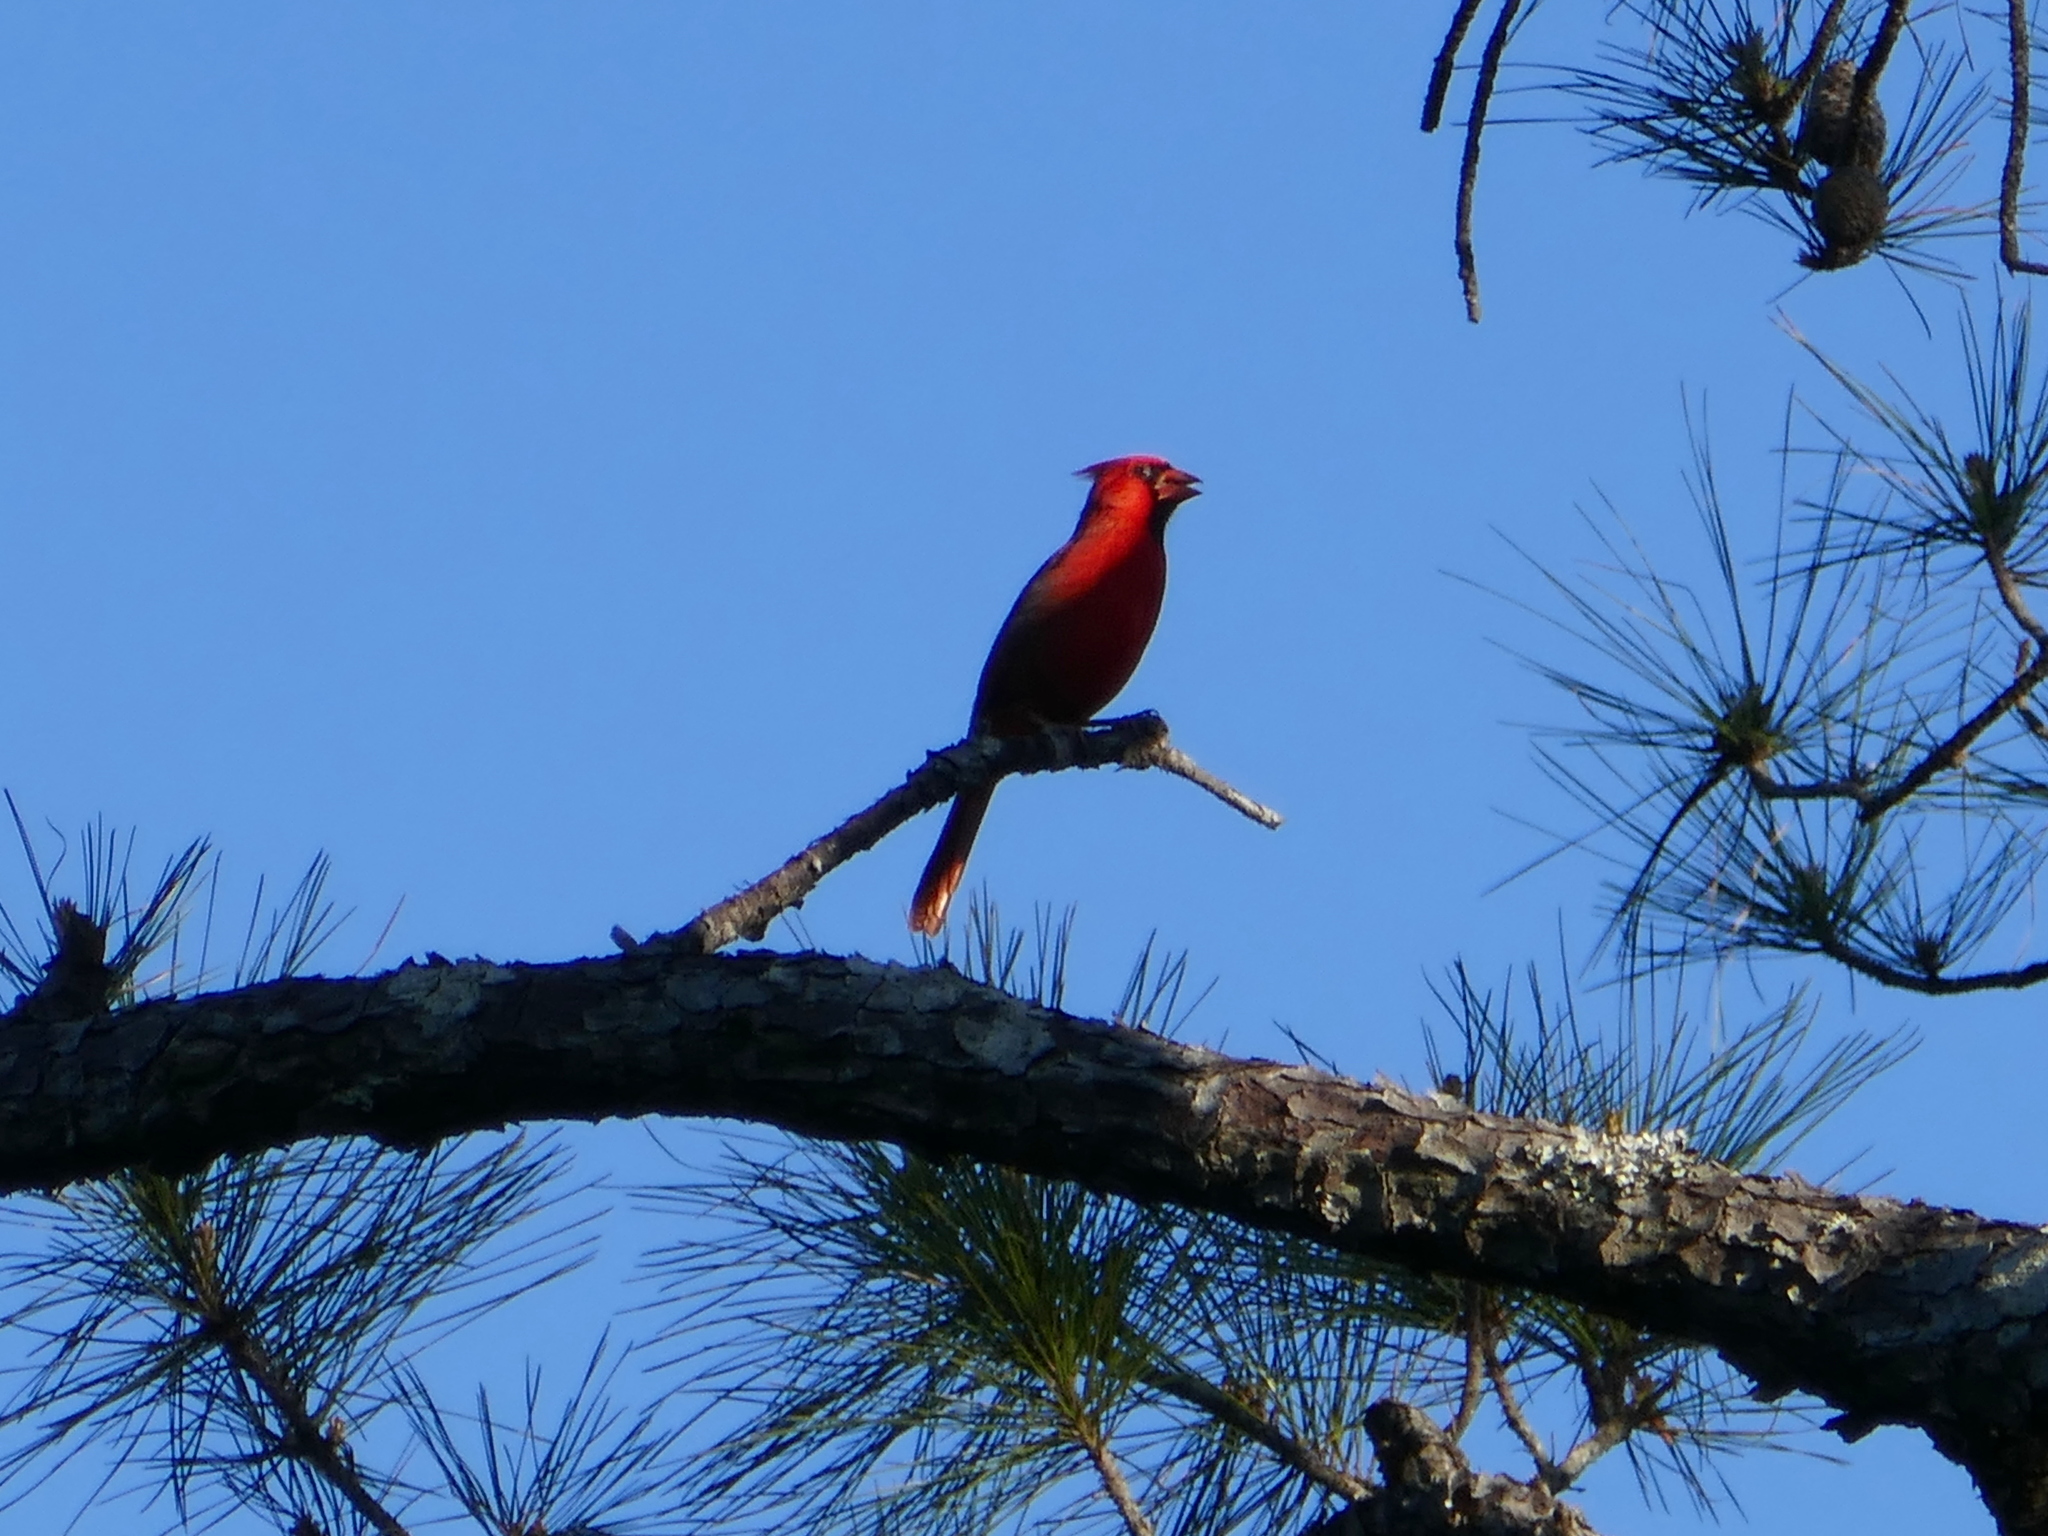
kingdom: Animalia
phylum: Chordata
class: Aves
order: Passeriformes
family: Cardinalidae
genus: Cardinalis
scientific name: Cardinalis cardinalis
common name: Northern cardinal
